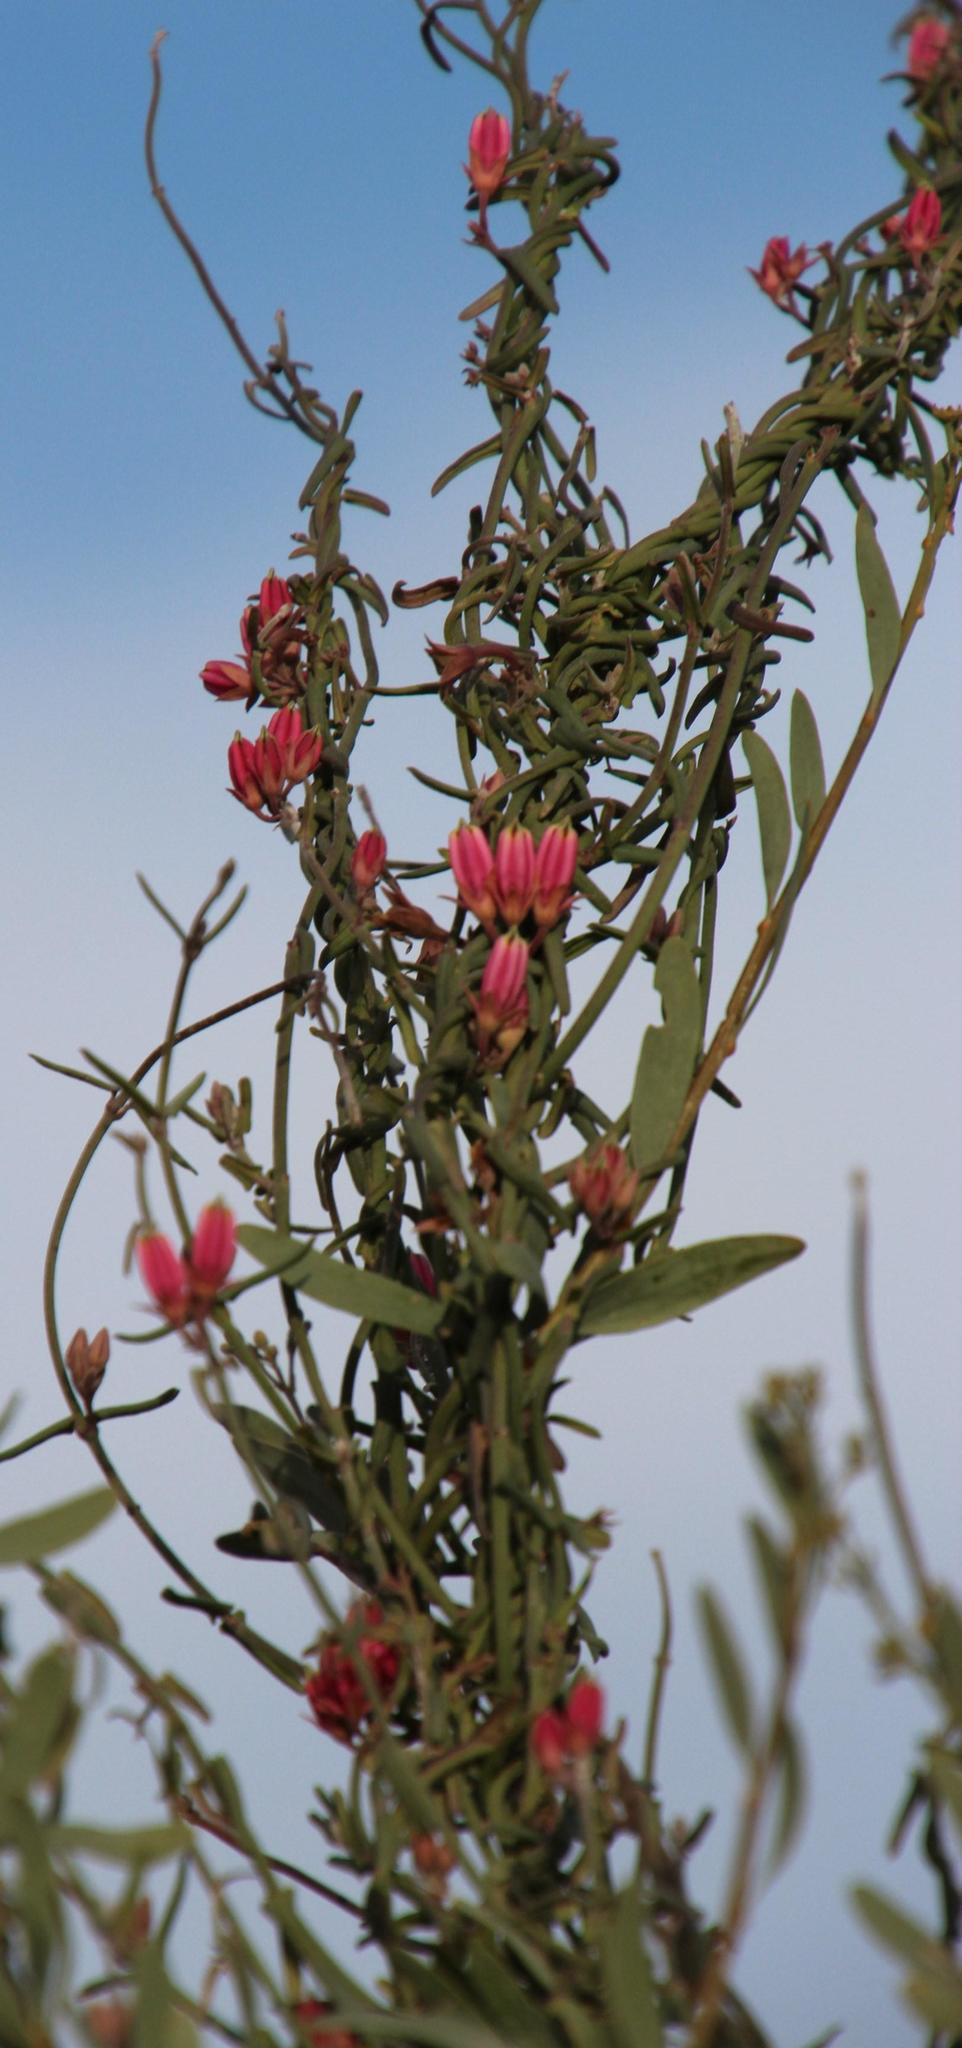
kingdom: Plantae
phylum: Tracheophyta
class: Magnoliopsida
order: Gentianales
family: Apocynaceae
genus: Microloma
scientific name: Microloma sagittatum
